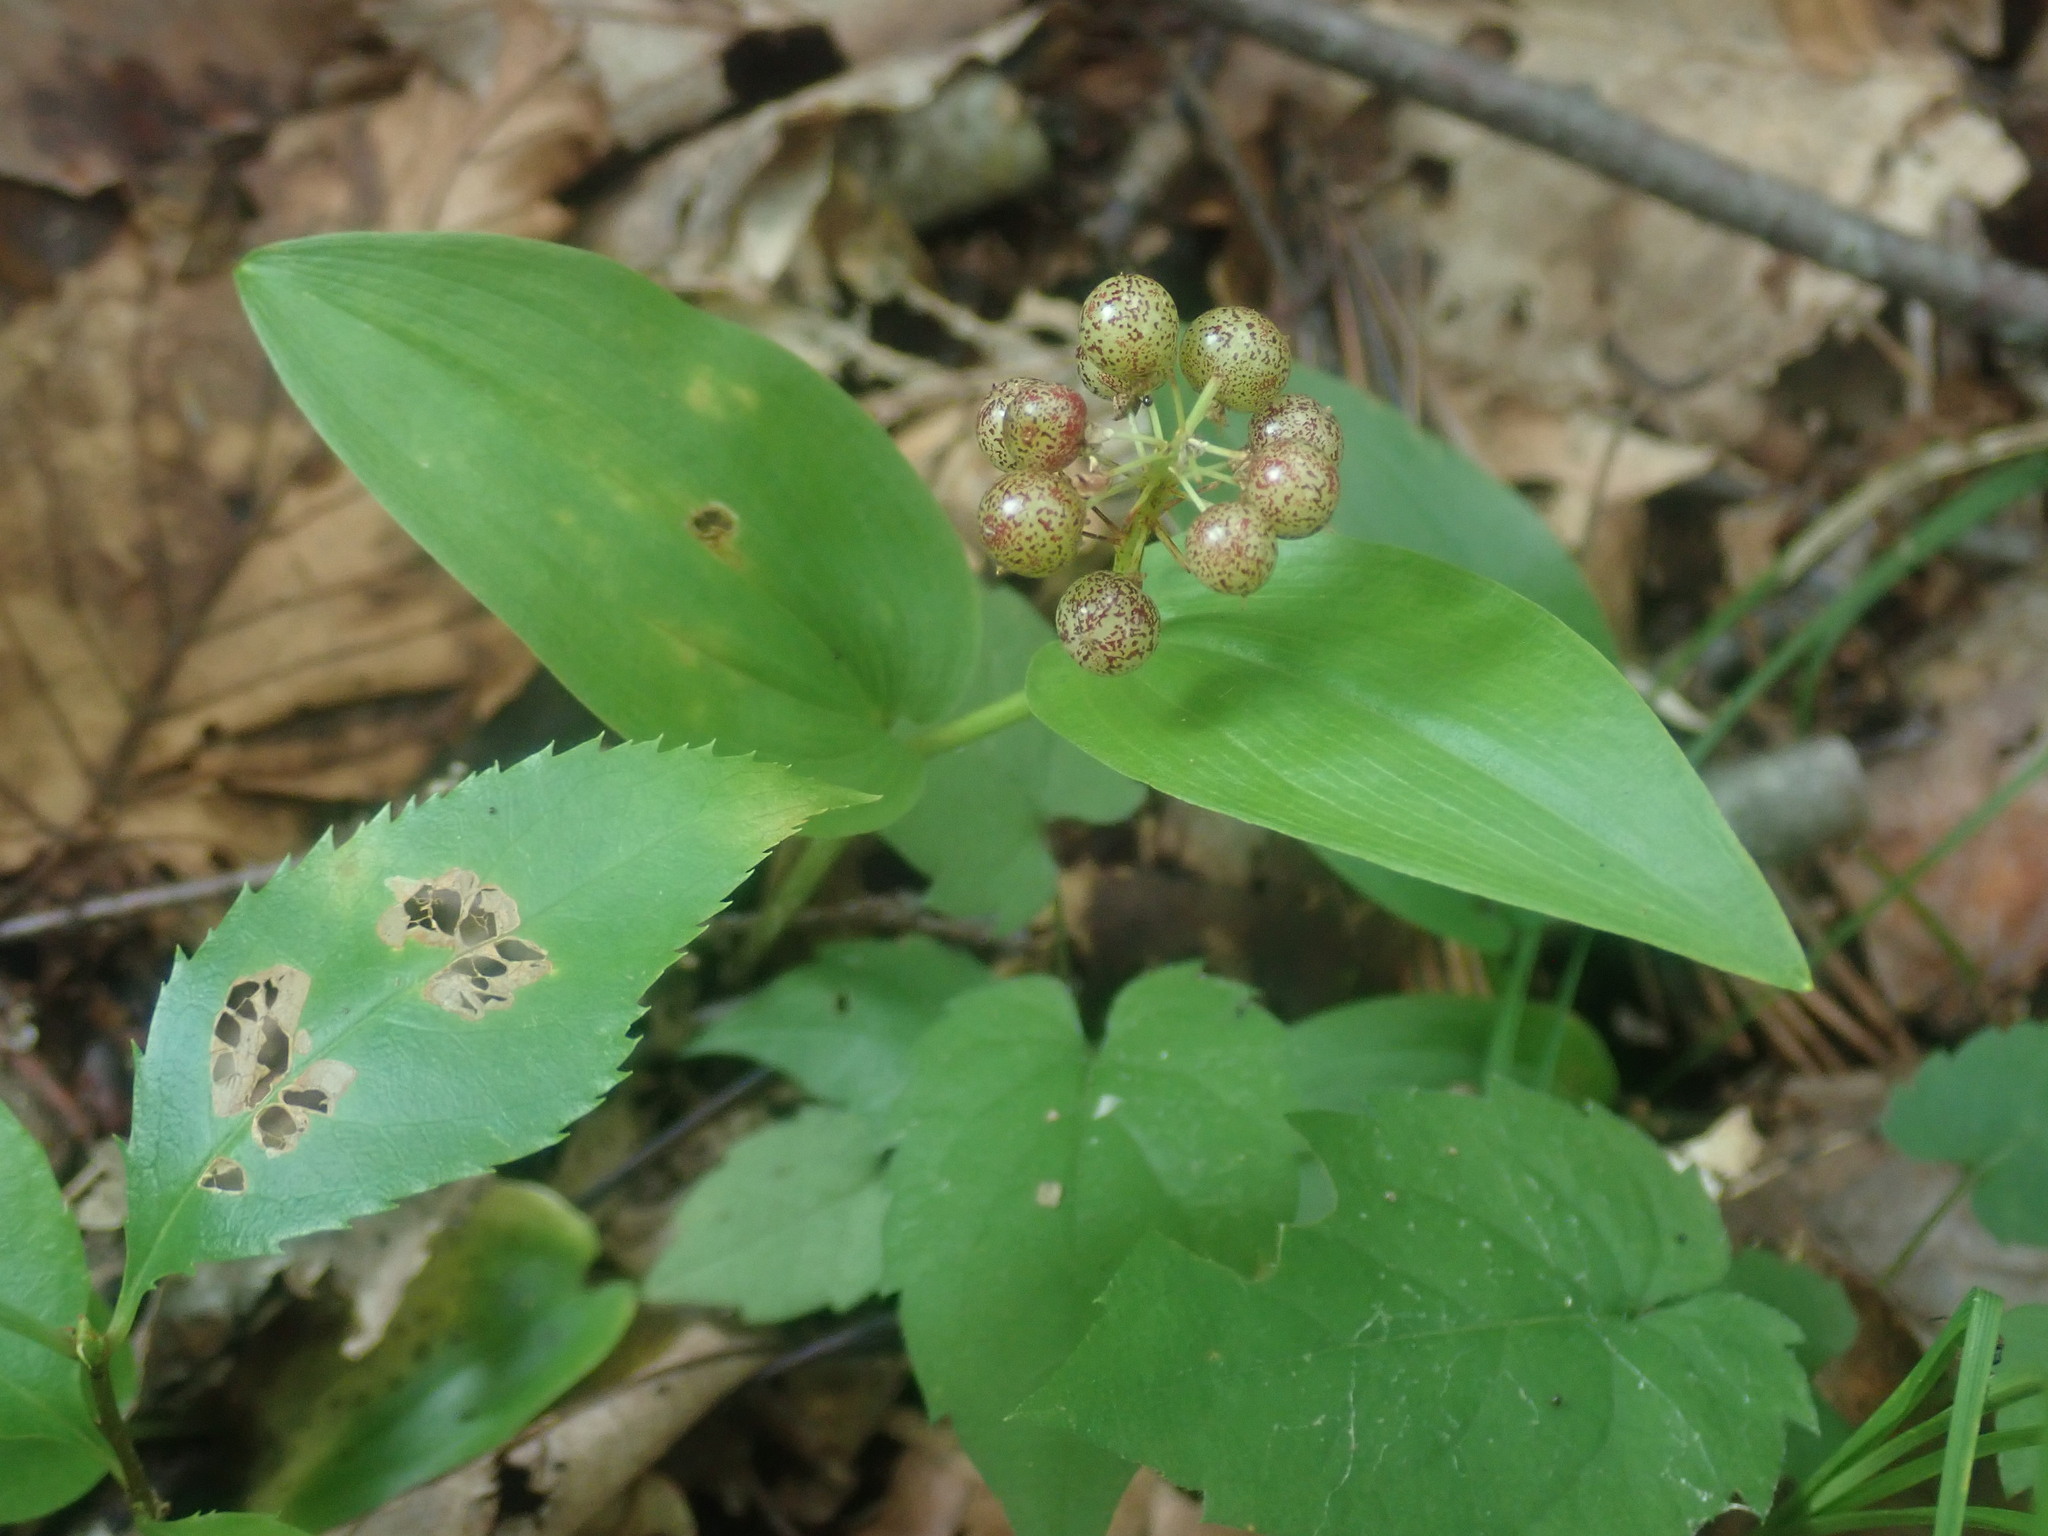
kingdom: Plantae
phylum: Tracheophyta
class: Liliopsida
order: Asparagales
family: Asparagaceae
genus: Maianthemum
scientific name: Maianthemum canadense
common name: False lily-of-the-valley
